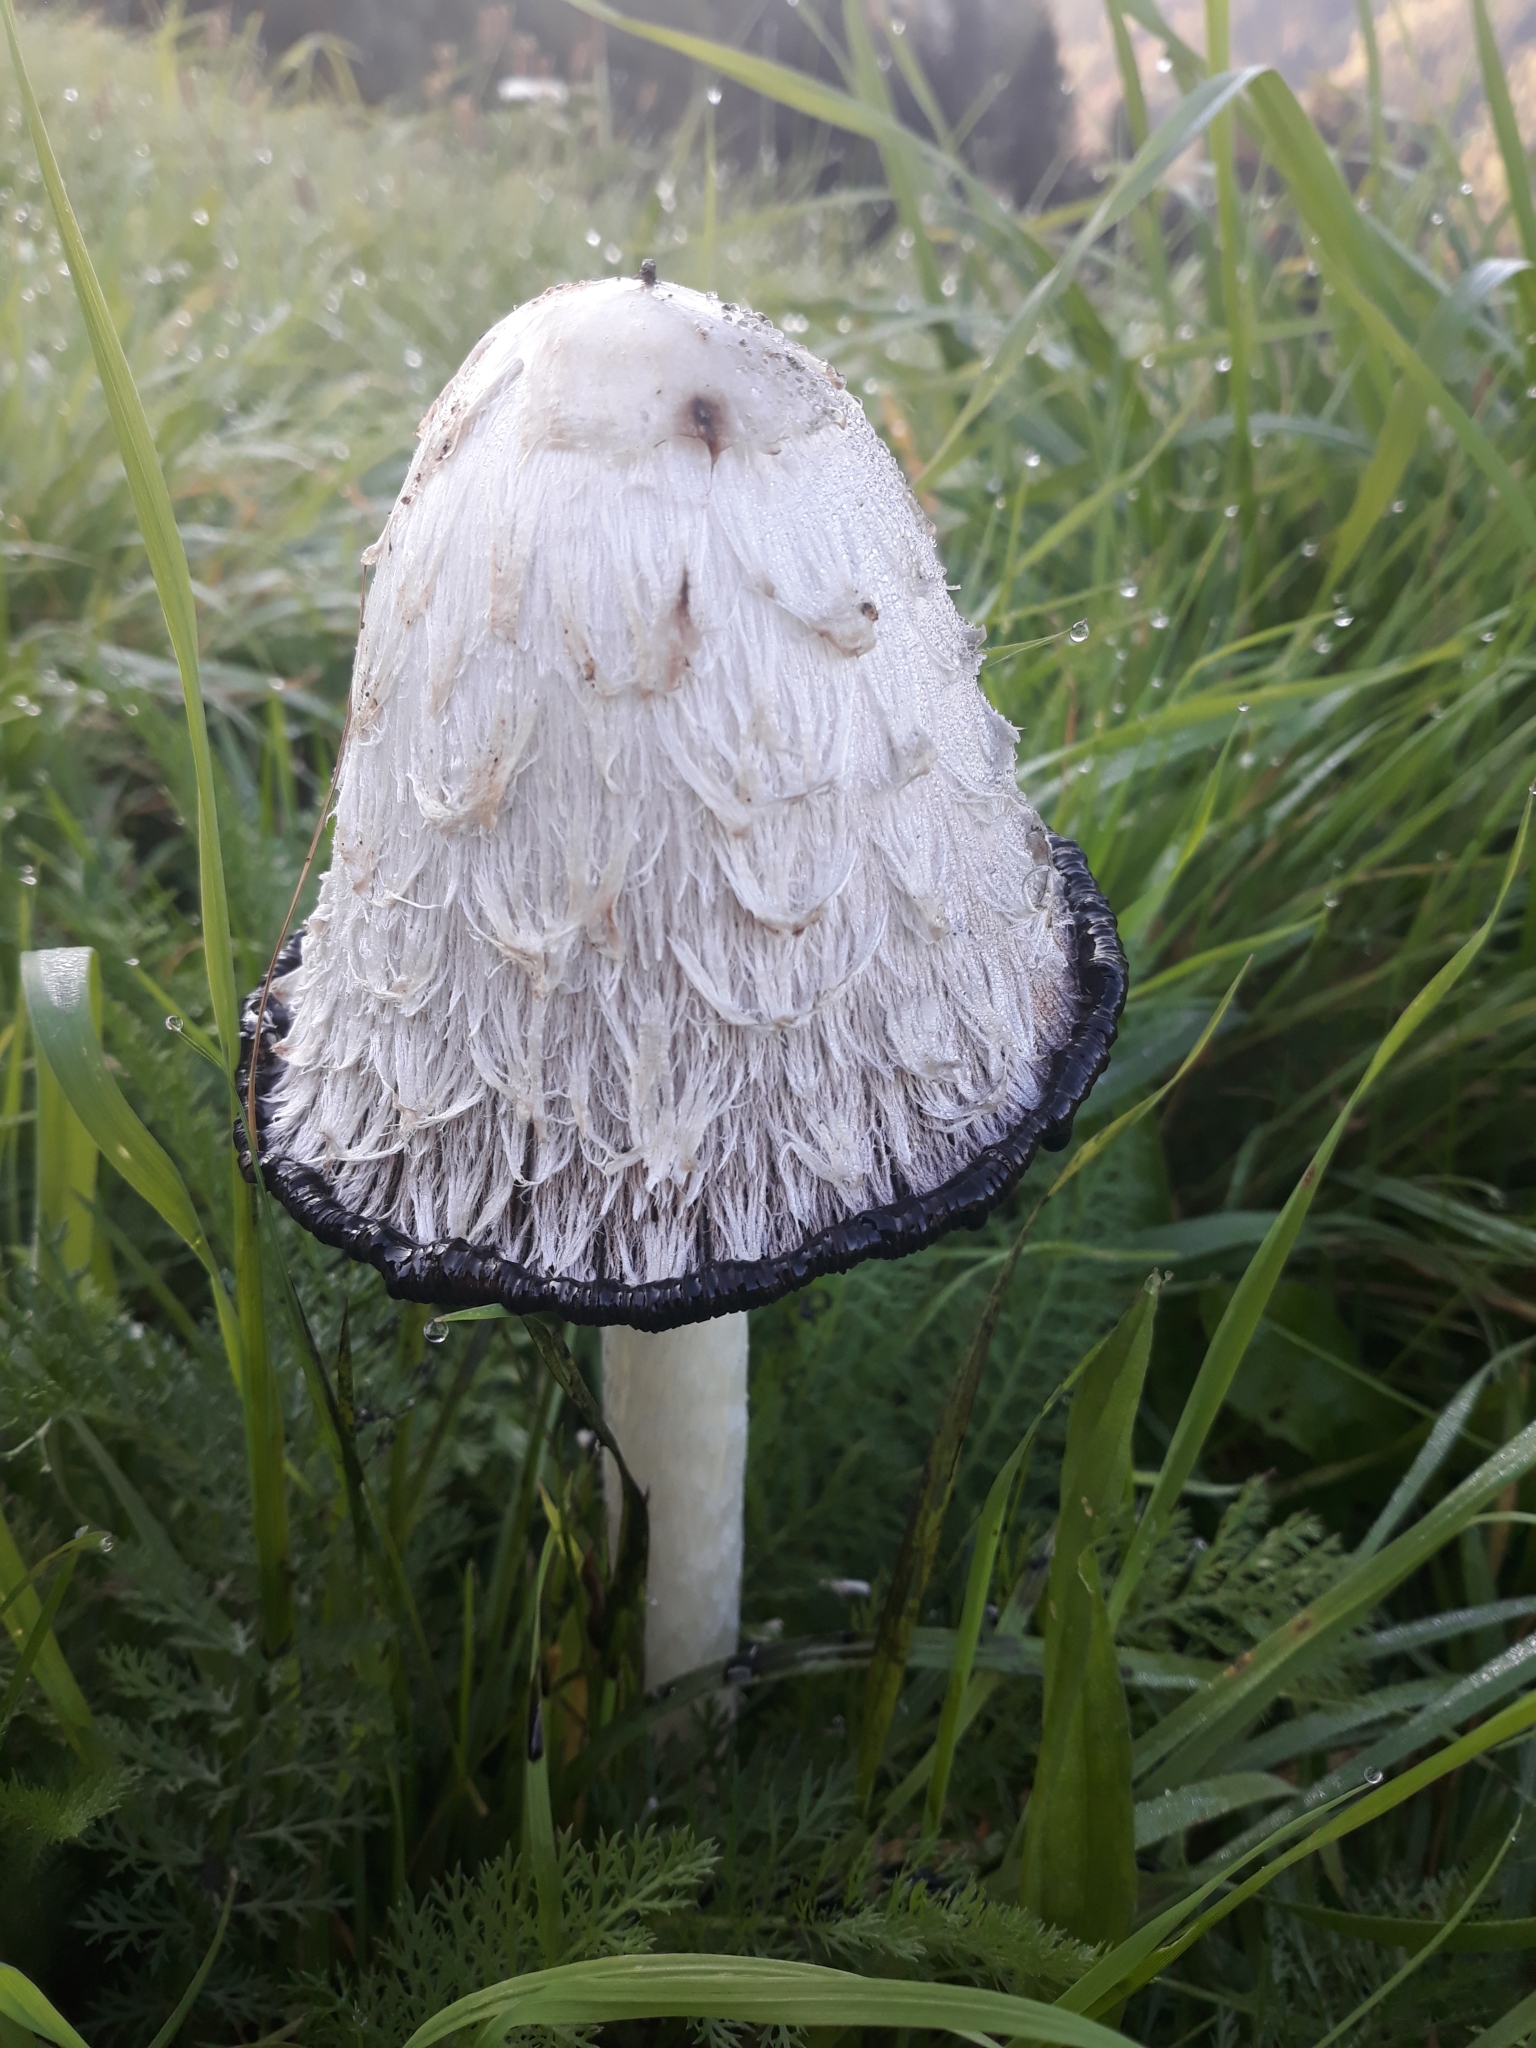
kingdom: Fungi
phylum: Basidiomycota
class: Agaricomycetes
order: Agaricales
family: Agaricaceae
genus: Coprinus
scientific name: Coprinus comatus
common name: Lawyer's wig
